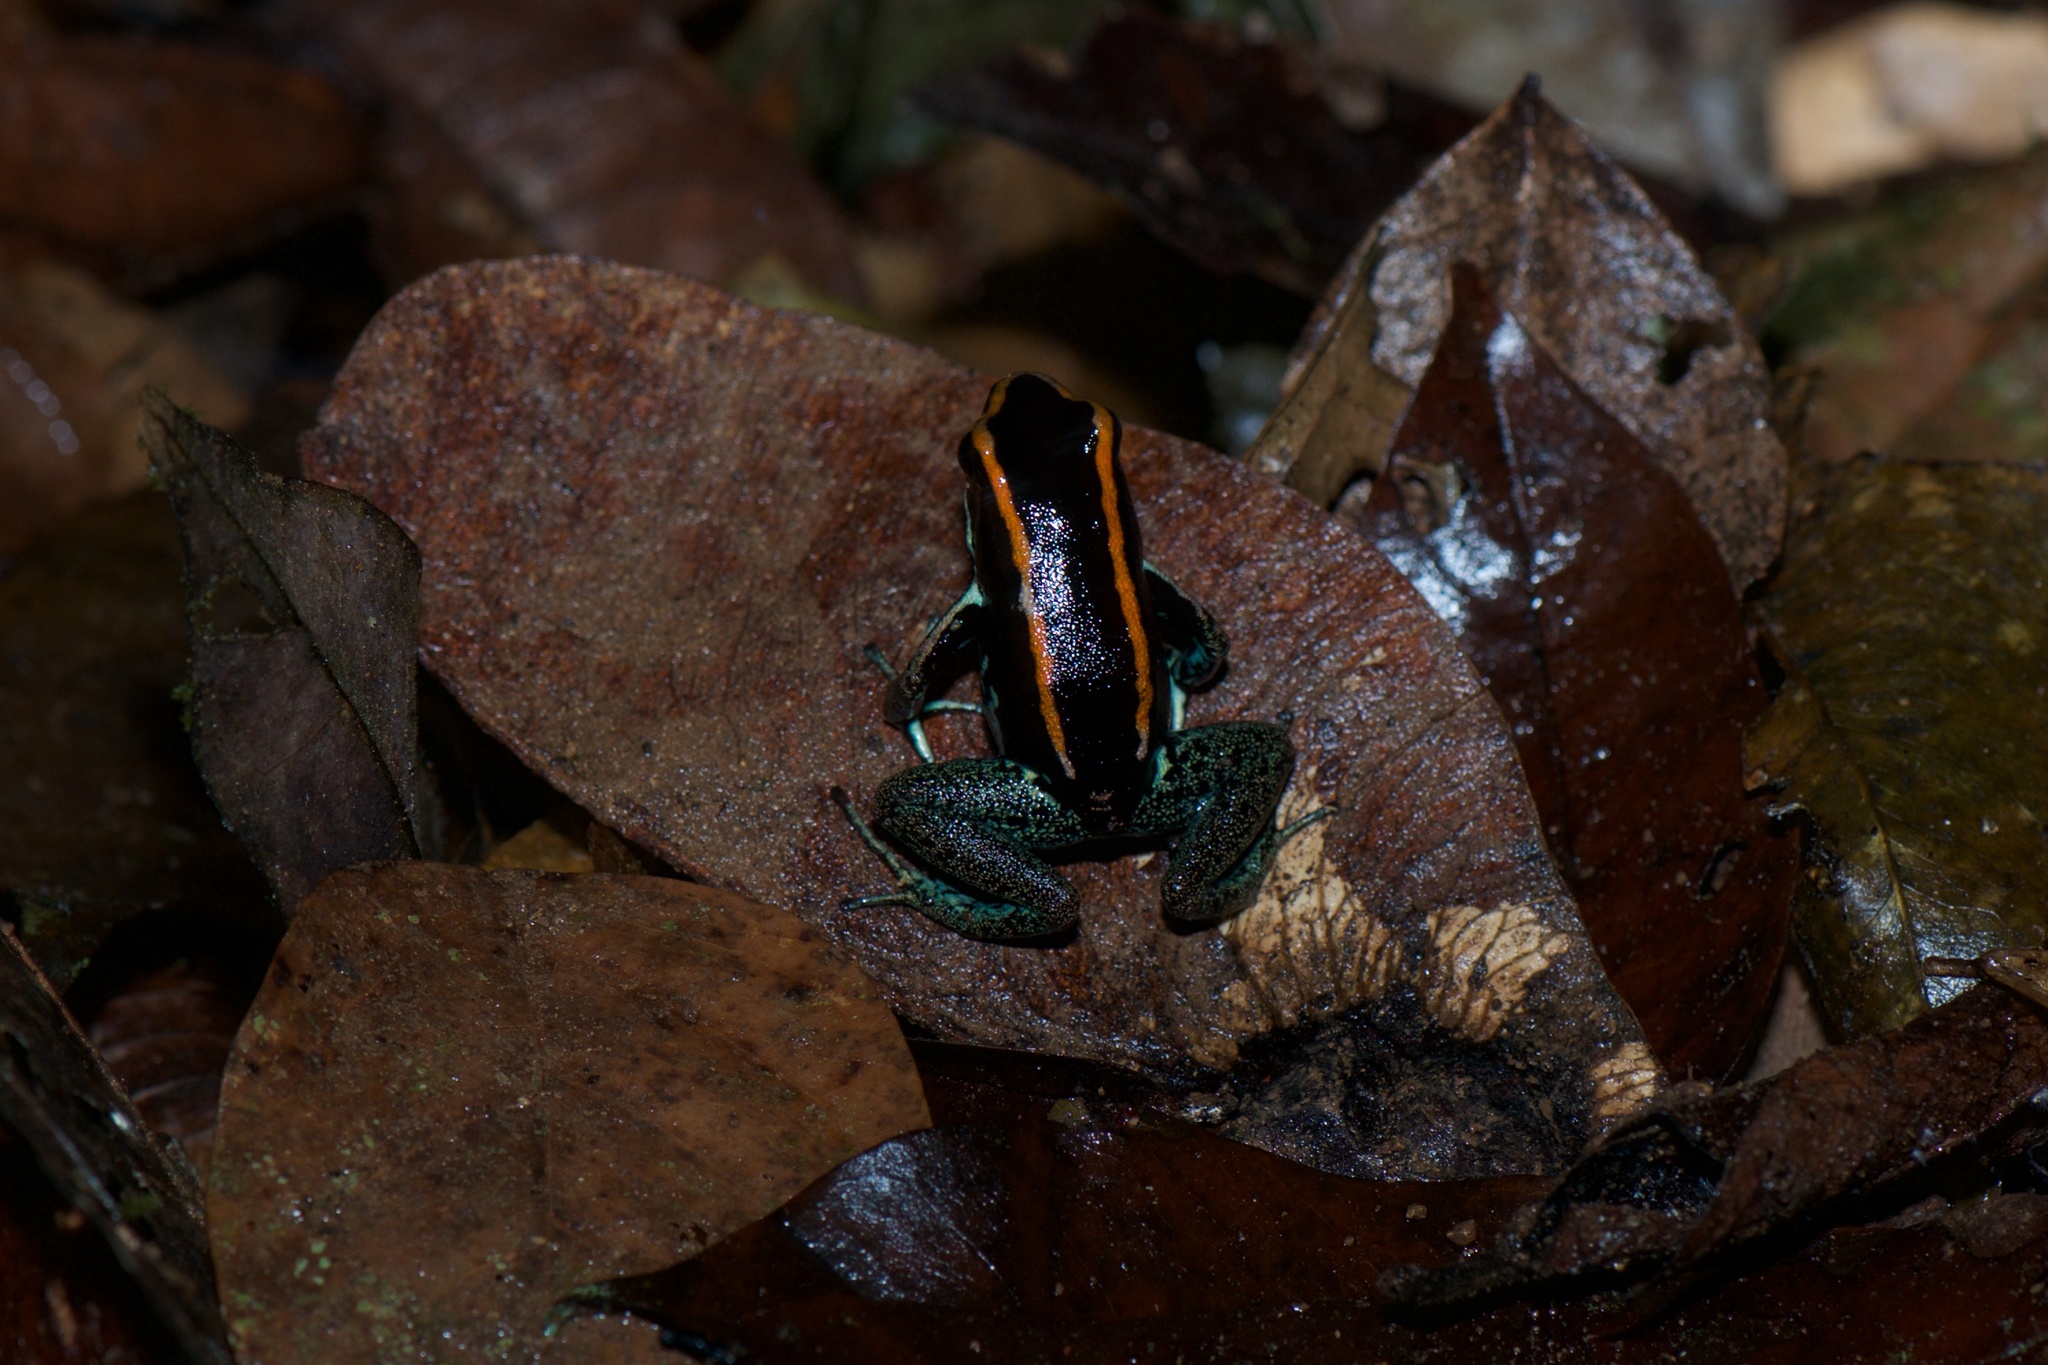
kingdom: Animalia
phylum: Chordata
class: Amphibia
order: Anura
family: Dendrobatidae
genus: Phyllobates
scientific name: Phyllobates vittatus
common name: Golfodulcean poison frog
